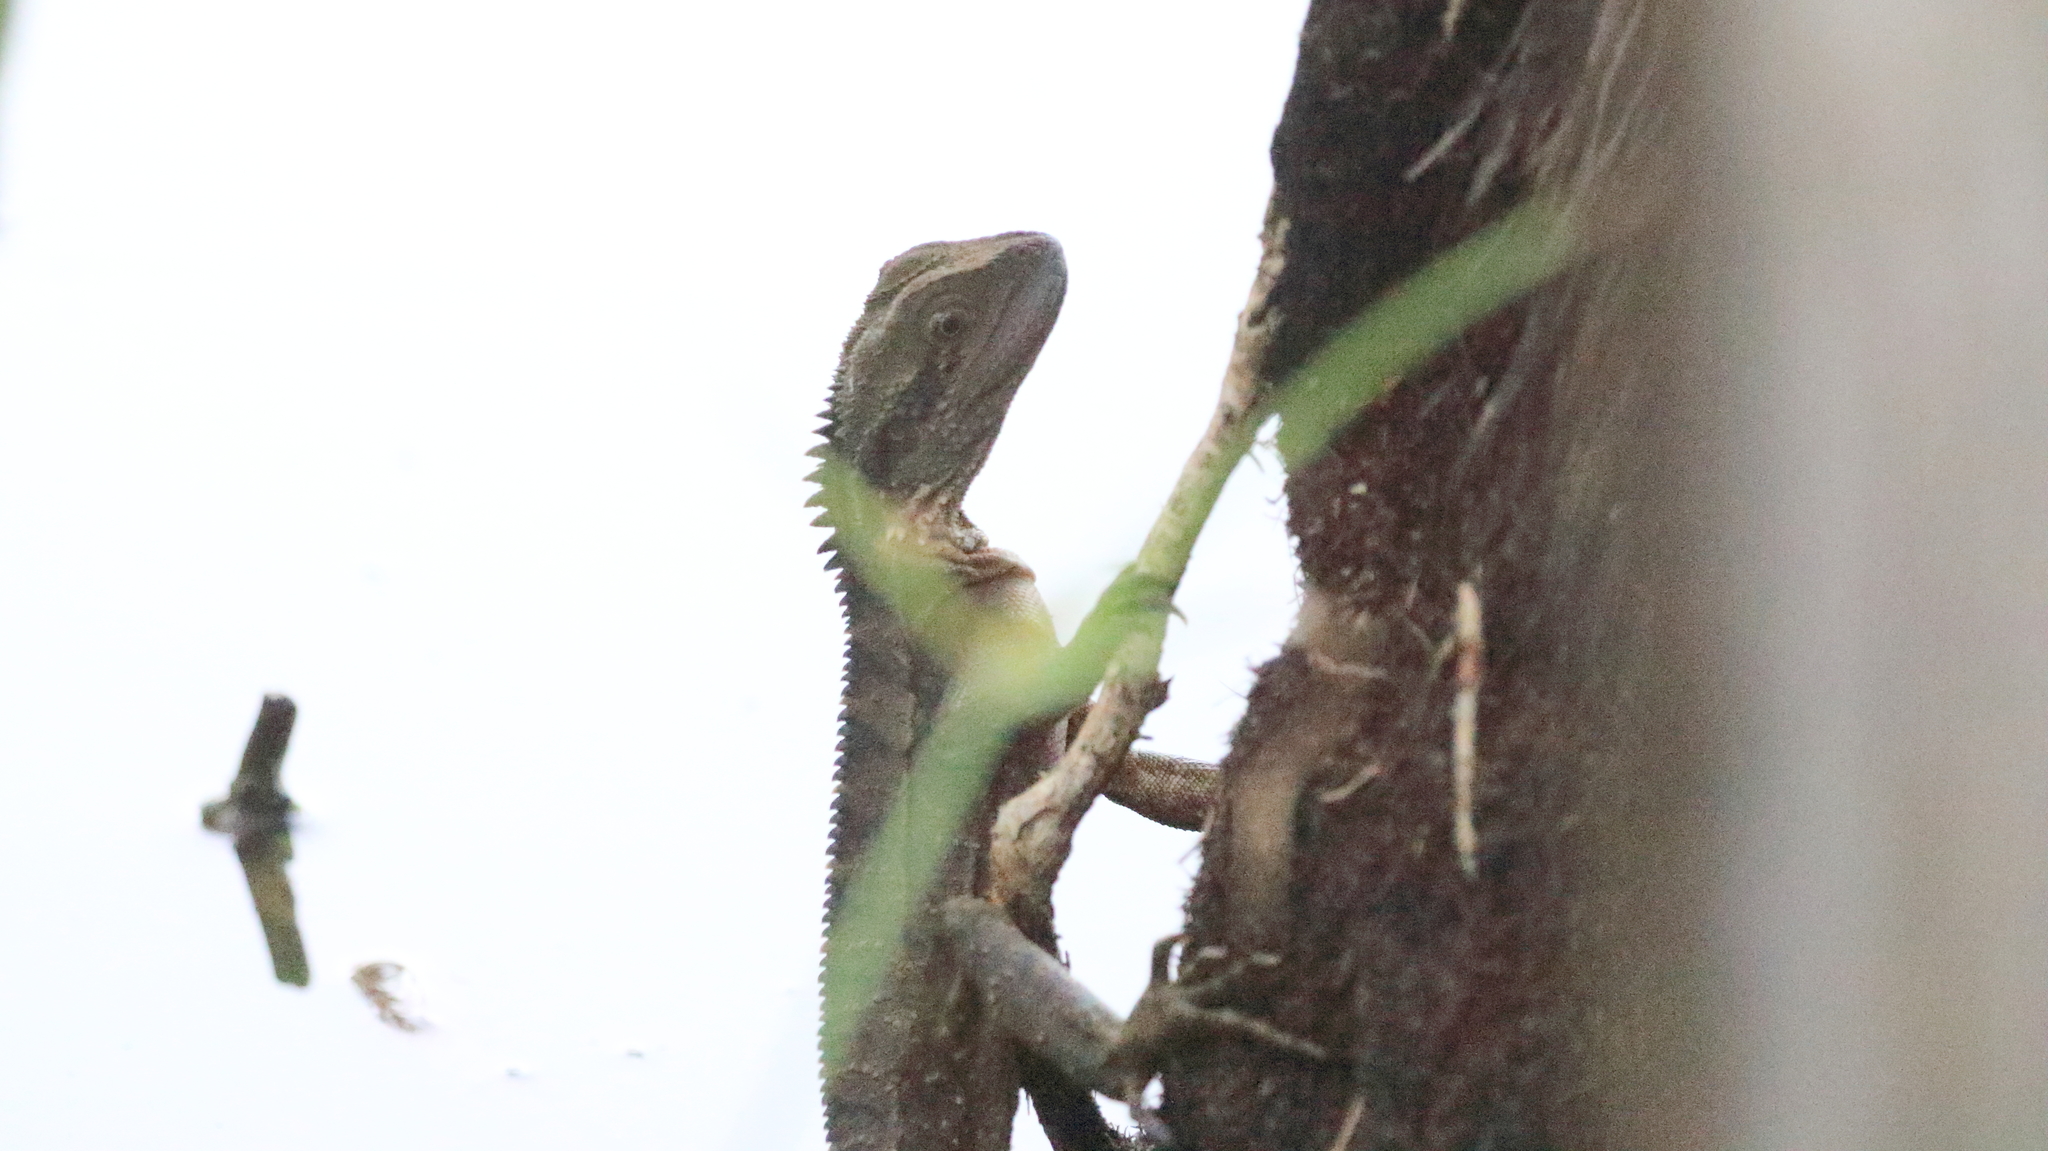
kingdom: Animalia
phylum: Chordata
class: Squamata
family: Agamidae
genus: Intellagama
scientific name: Intellagama lesueurii
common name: Eastern water dragon
